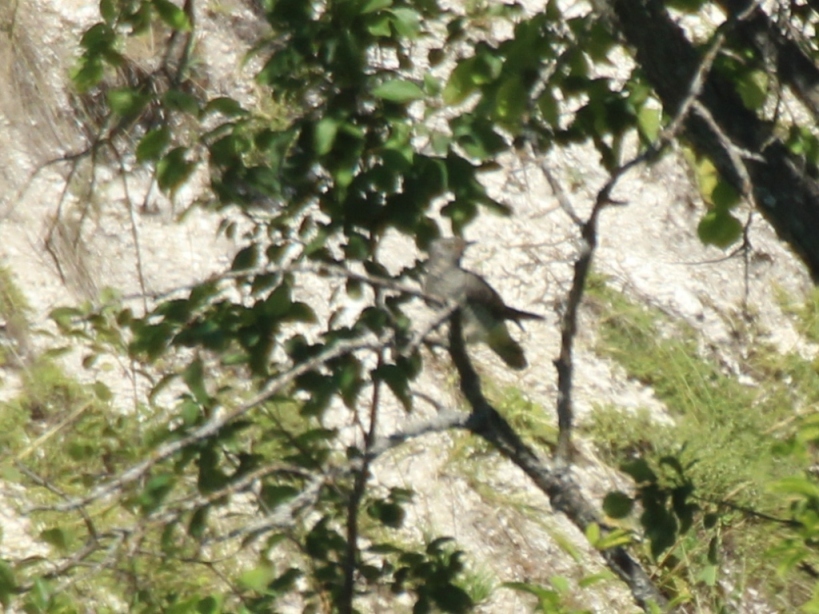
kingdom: Animalia
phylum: Chordata
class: Aves
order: Cuculiformes
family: Cuculidae
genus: Cuculus
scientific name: Cuculus canorus
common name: Common cuckoo
